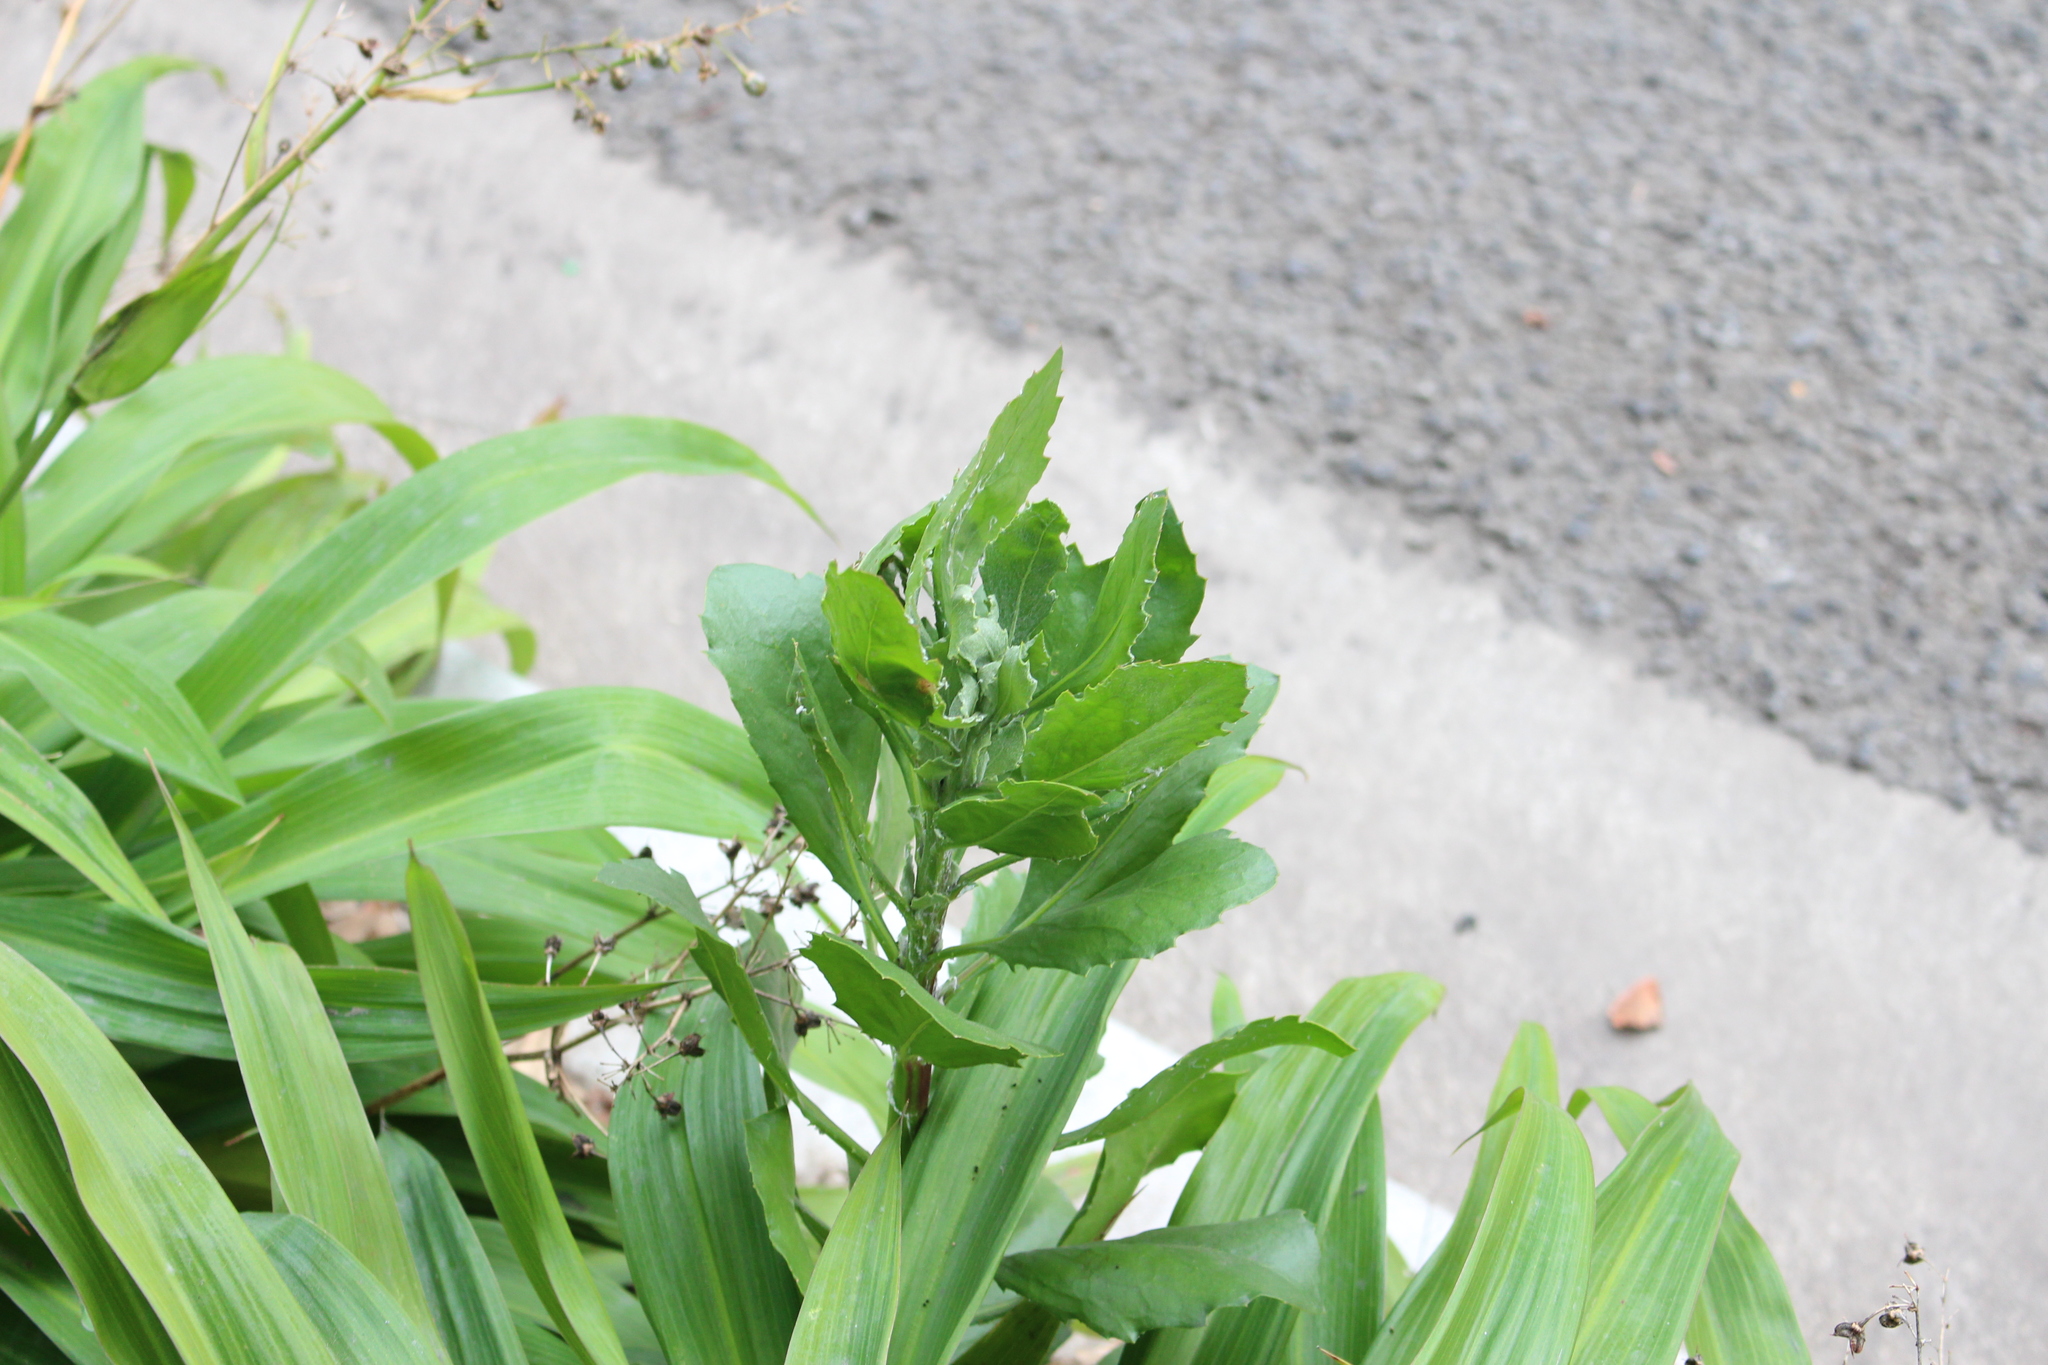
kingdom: Plantae
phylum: Tracheophyta
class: Magnoliopsida
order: Asterales
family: Asteraceae
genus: Osteospermum
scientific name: Osteospermum moniliferum
